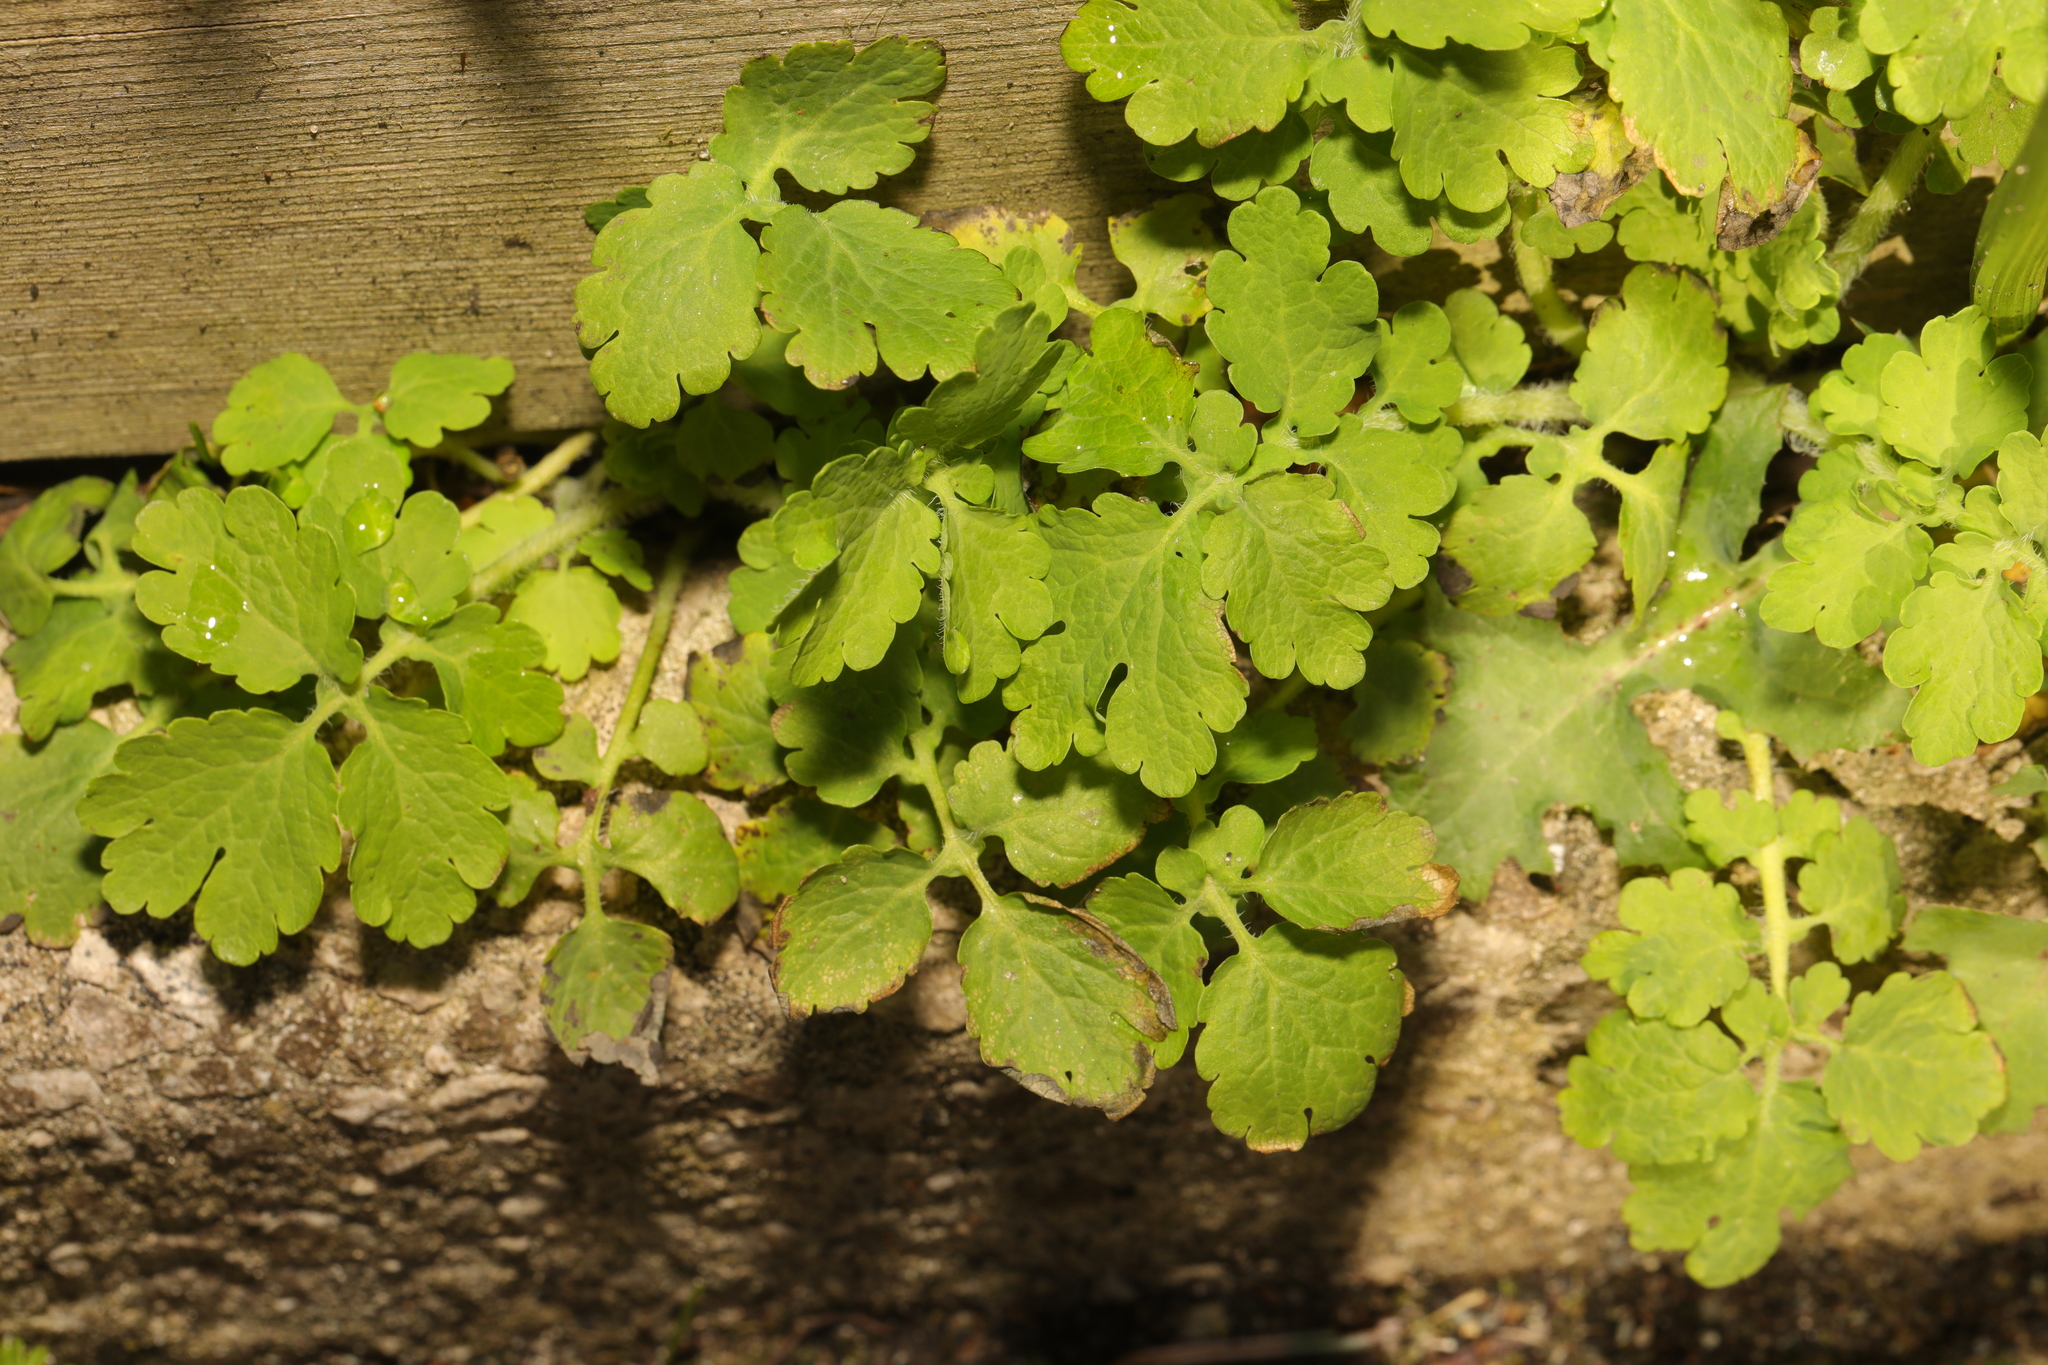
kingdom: Plantae
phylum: Tracheophyta
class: Magnoliopsida
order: Ranunculales
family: Papaveraceae
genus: Chelidonium
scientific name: Chelidonium majus
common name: Greater celandine
